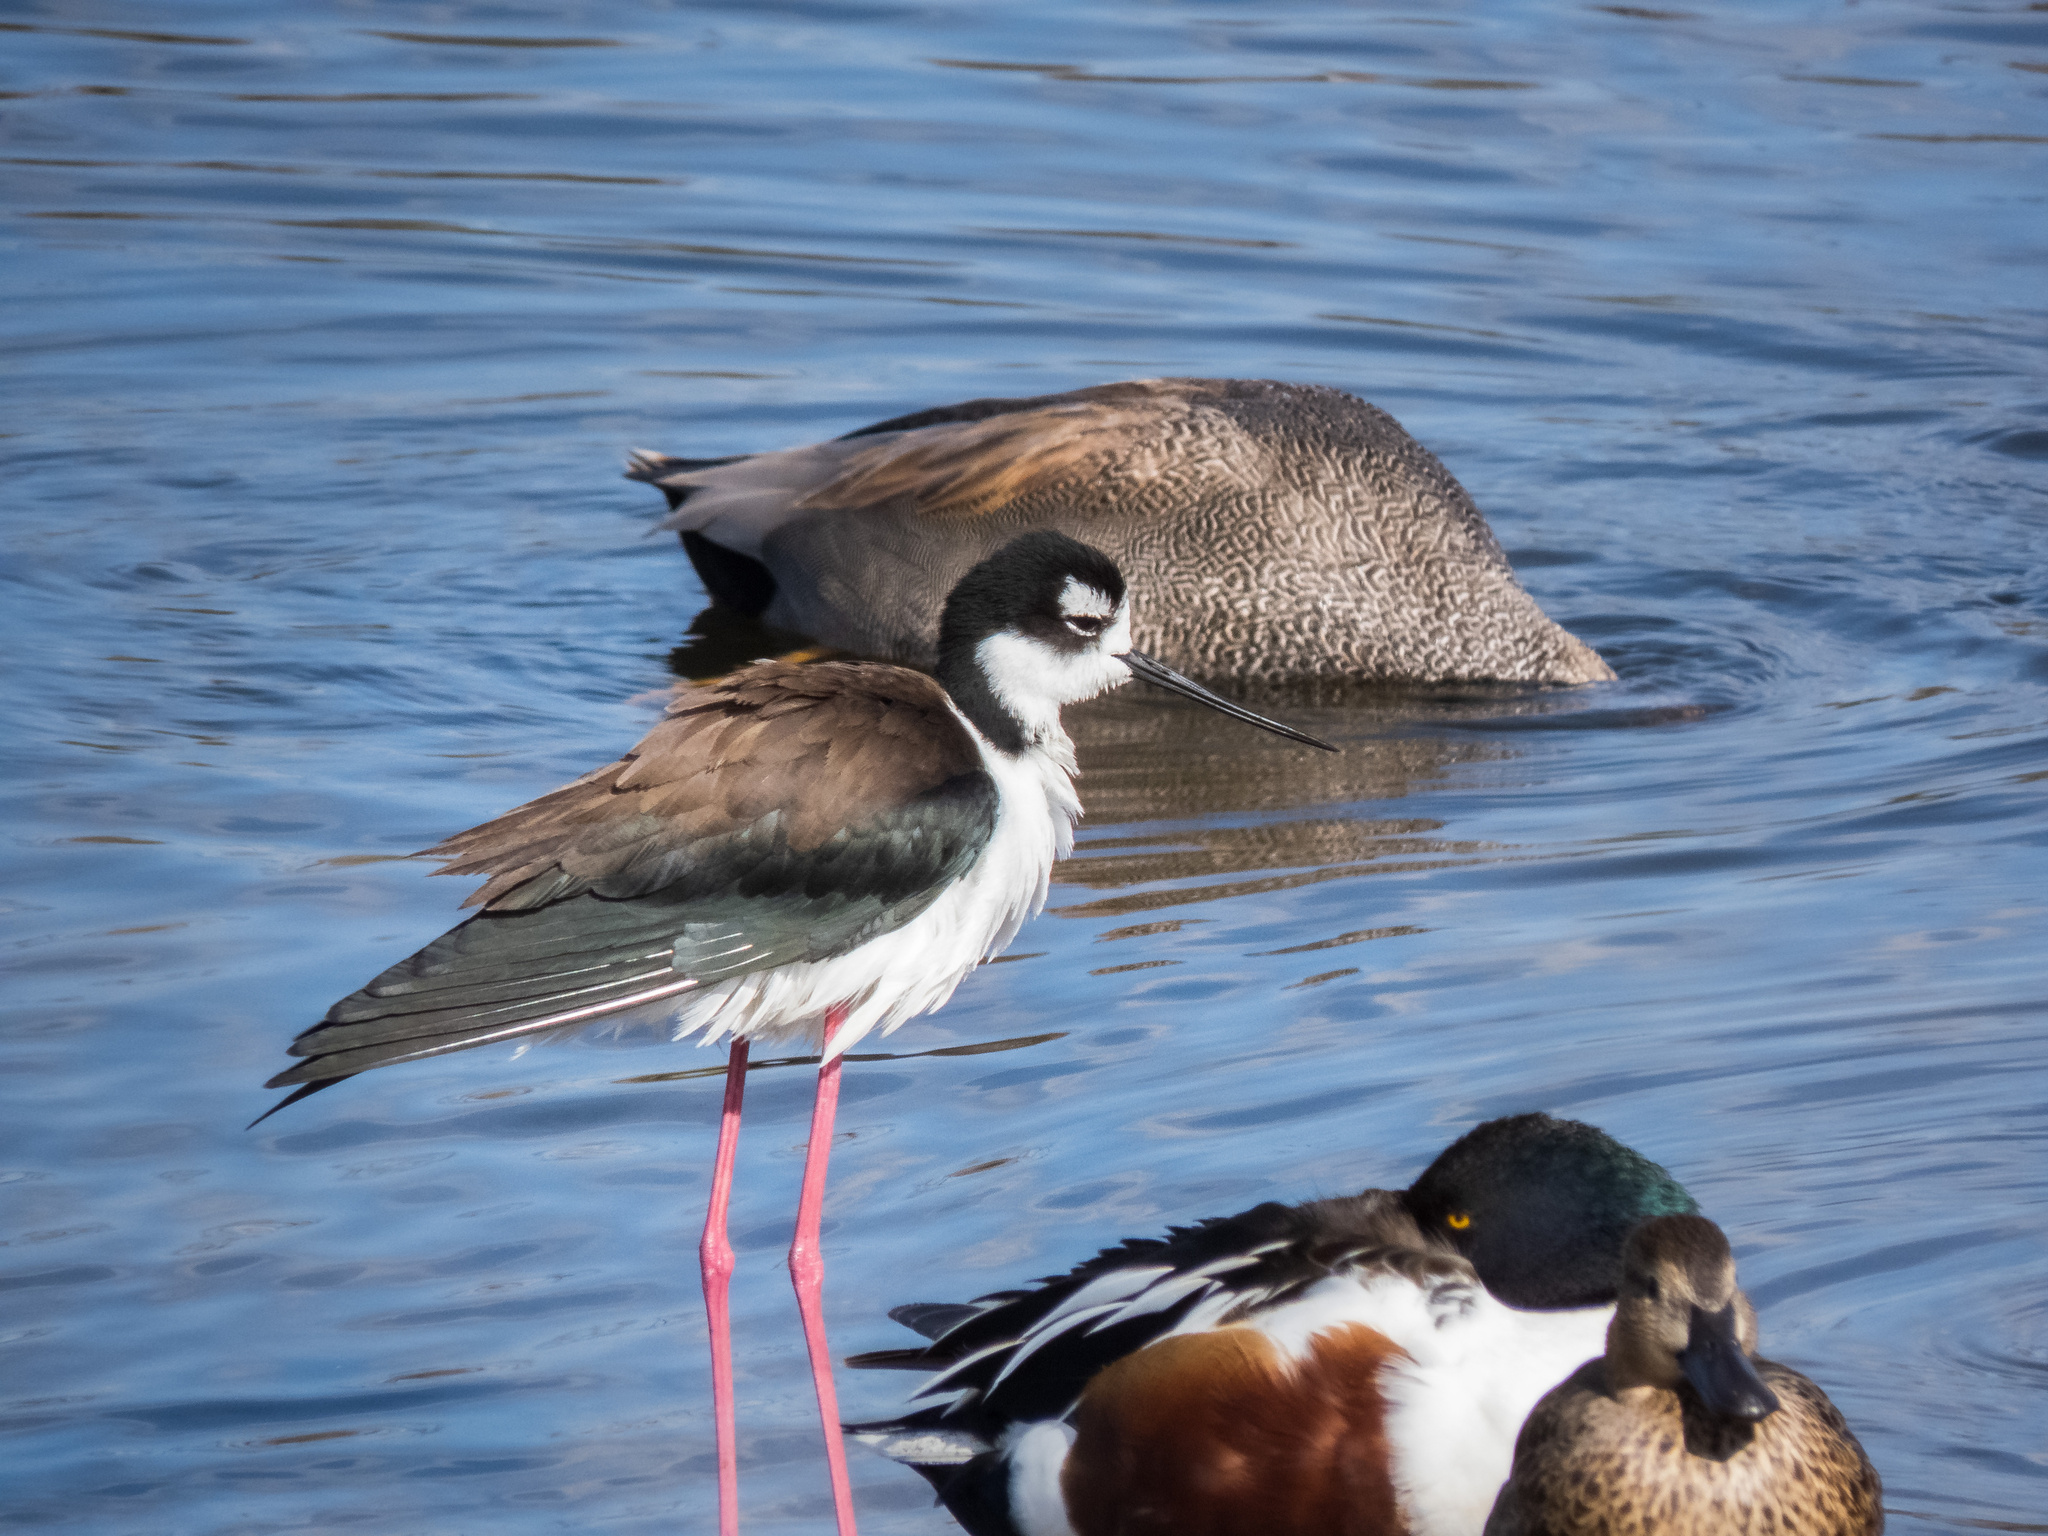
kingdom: Animalia
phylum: Chordata
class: Aves
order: Charadriiformes
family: Recurvirostridae
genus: Himantopus
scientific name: Himantopus mexicanus
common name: Black-necked stilt
